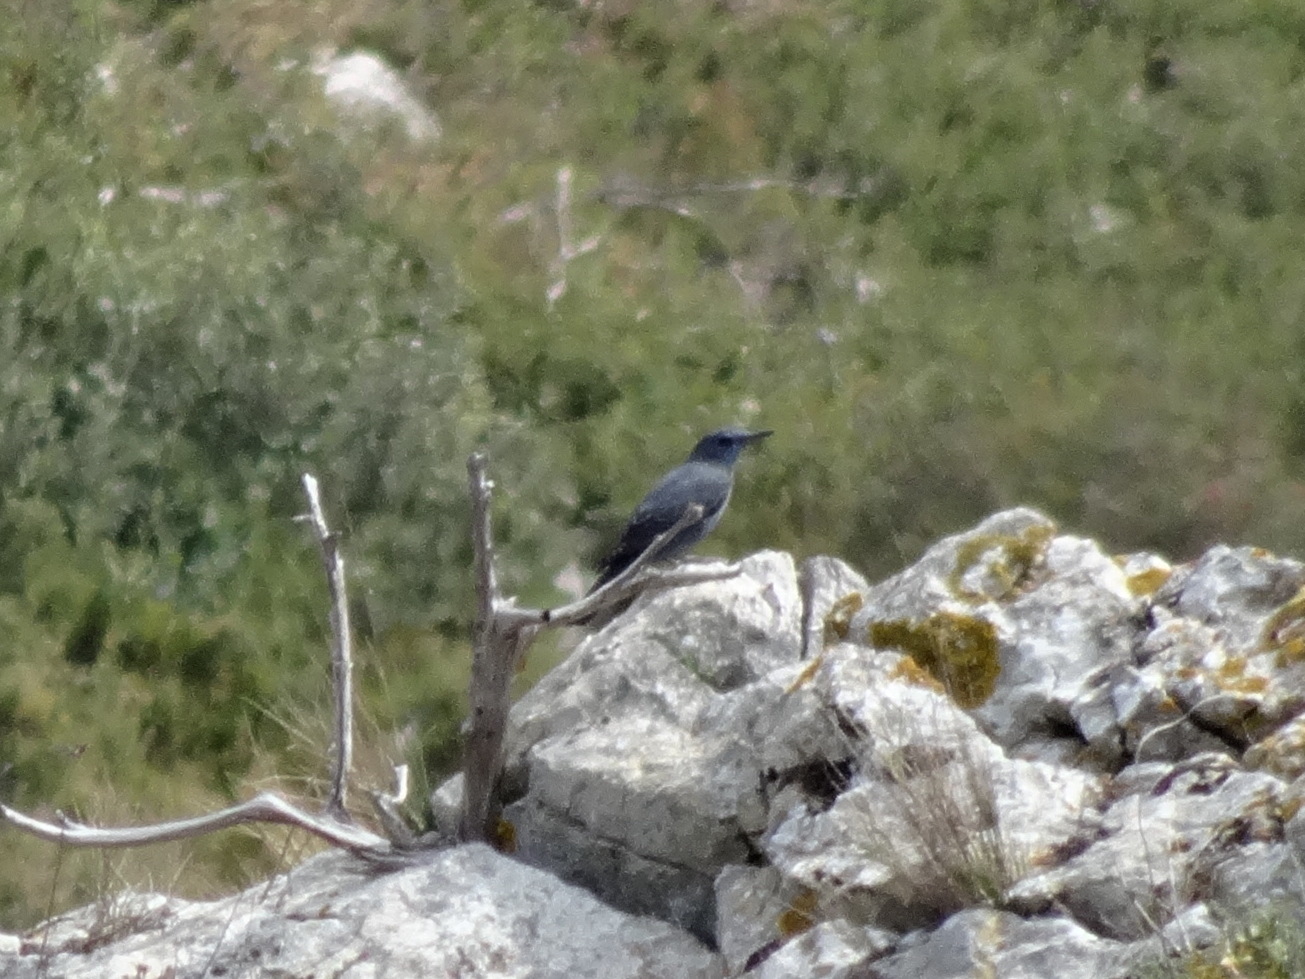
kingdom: Animalia
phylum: Chordata
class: Aves
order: Passeriformes
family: Muscicapidae
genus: Monticola
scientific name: Monticola solitarius
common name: Blue rock thrush
